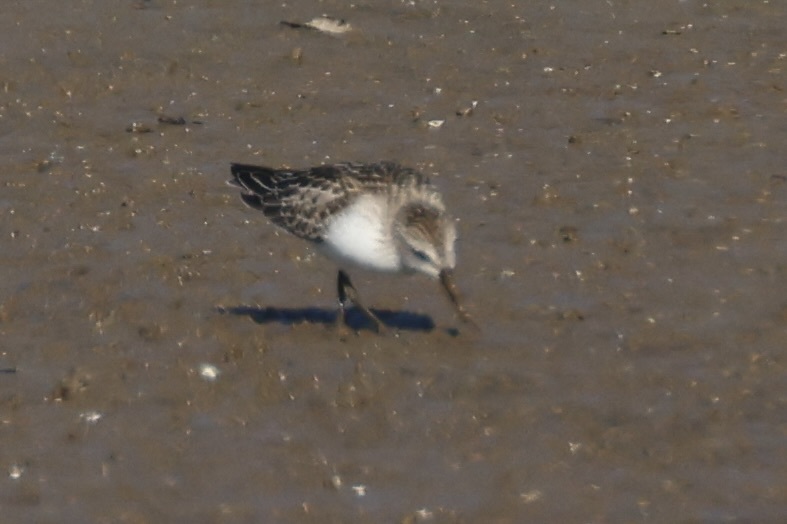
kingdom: Animalia
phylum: Chordata
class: Aves
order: Charadriiformes
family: Scolopacidae
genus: Calidris
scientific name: Calidris pusilla
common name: Semipalmated sandpiper
